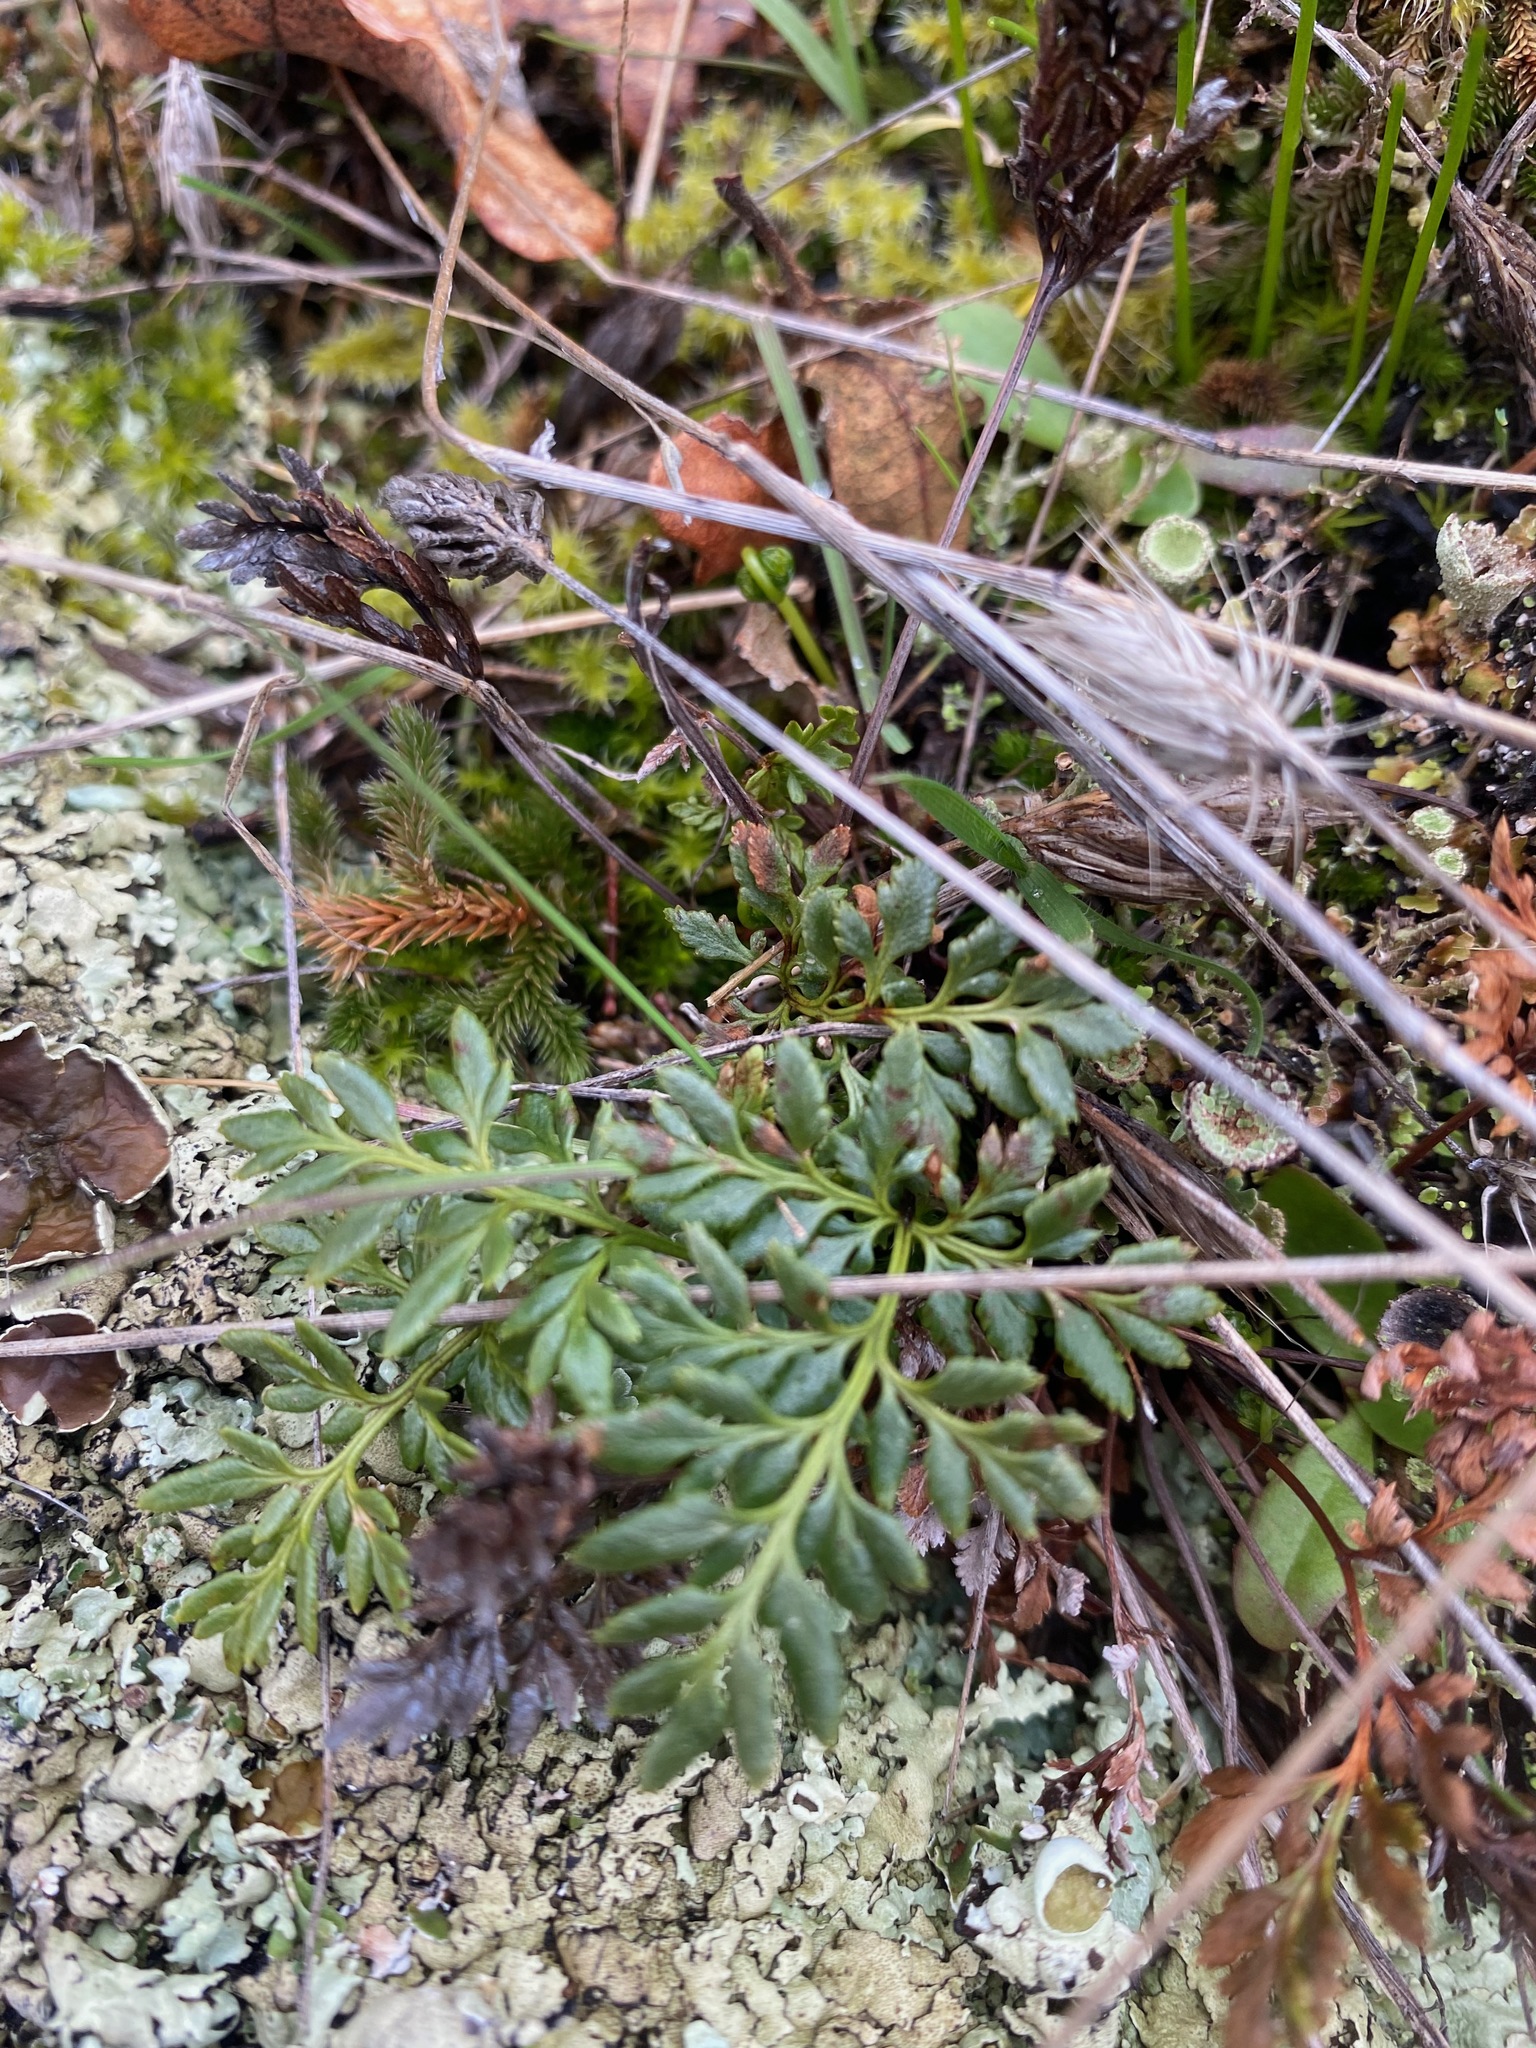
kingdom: Plantae
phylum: Tracheophyta
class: Polypodiopsida
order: Polypodiales
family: Pteridaceae
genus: Aspidotis
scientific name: Aspidotis densa
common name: Indian's dream
